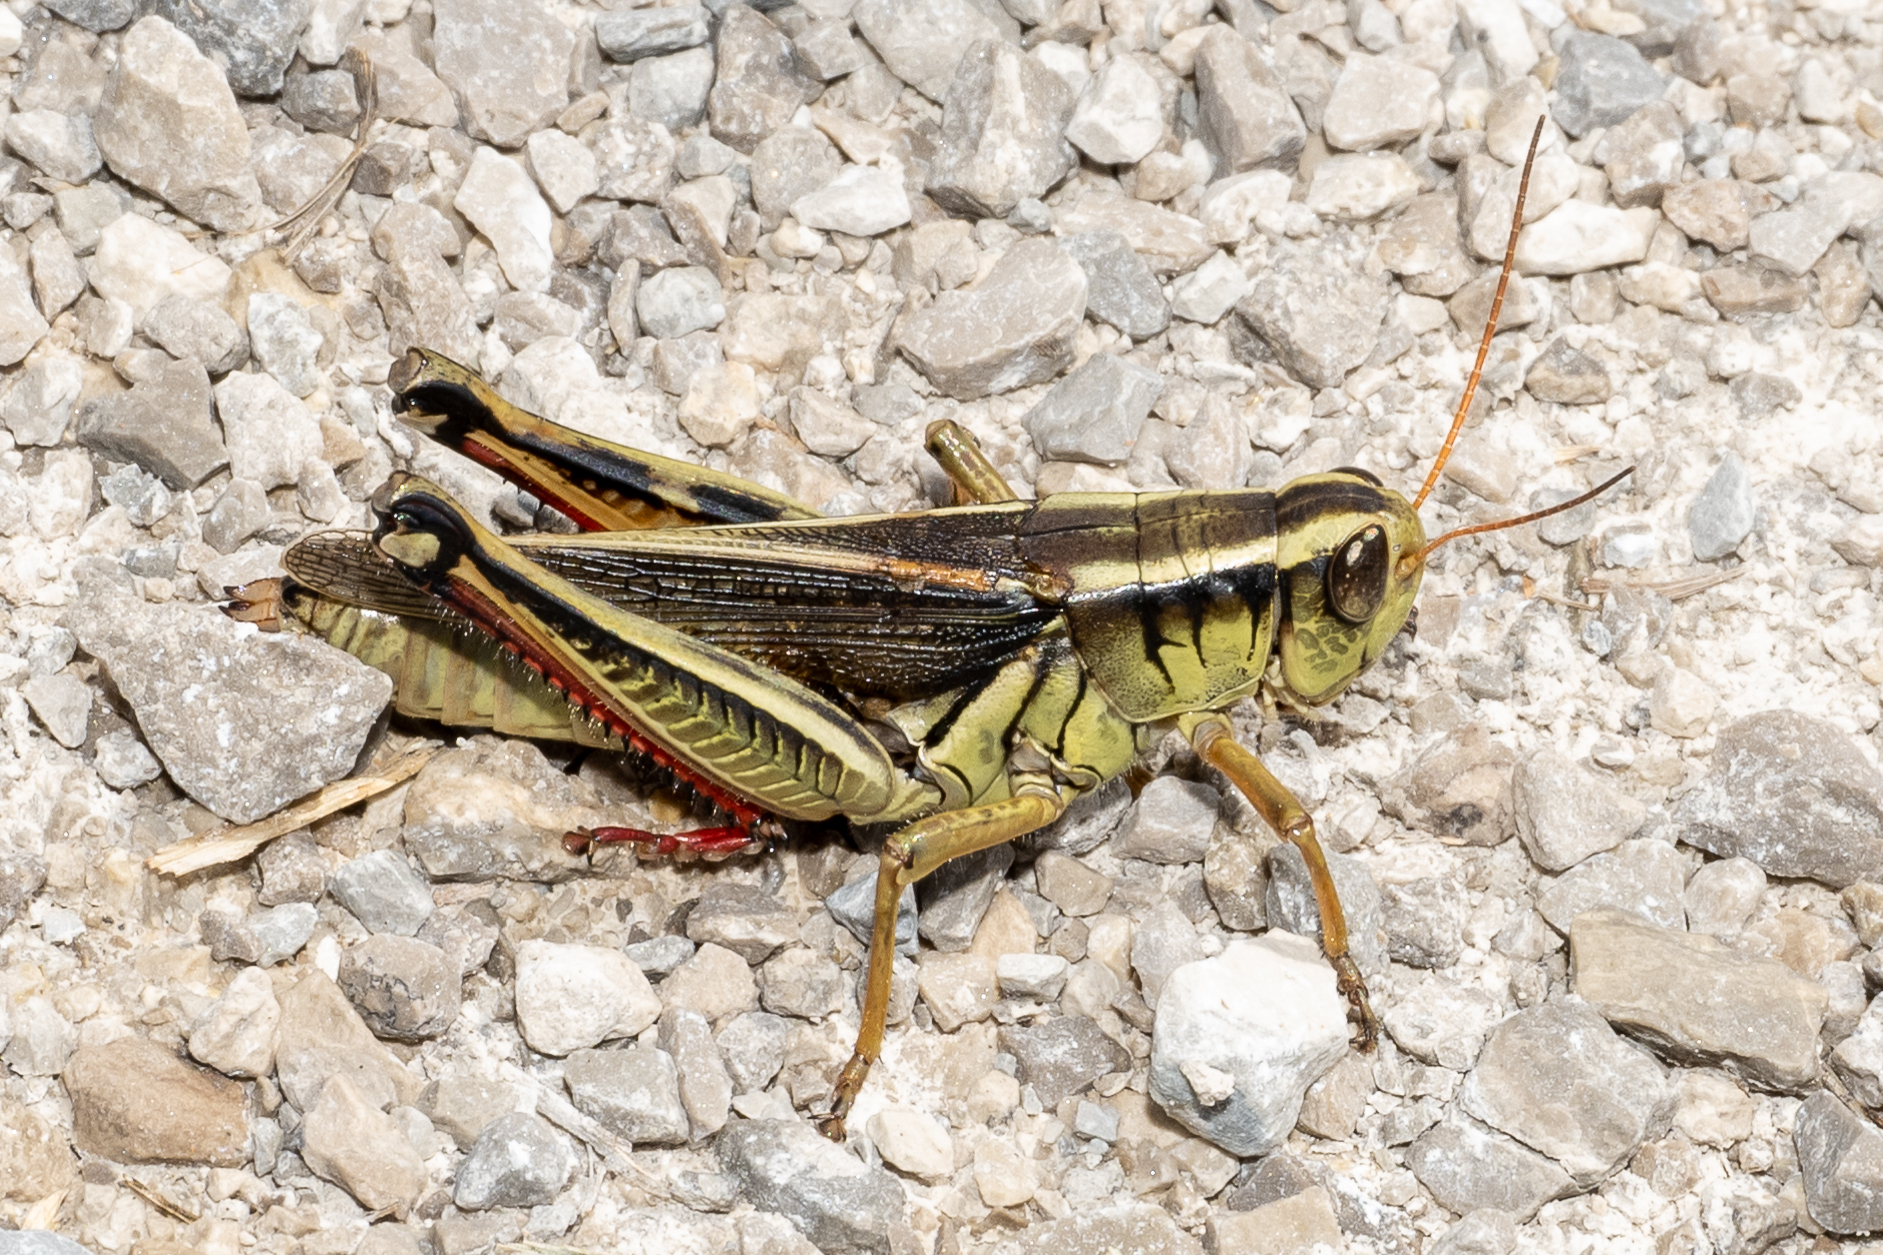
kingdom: Animalia
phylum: Arthropoda
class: Insecta
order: Orthoptera
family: Acrididae
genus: Melanoplus
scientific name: Melanoplus bivittatus
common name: Two-striped grasshopper
